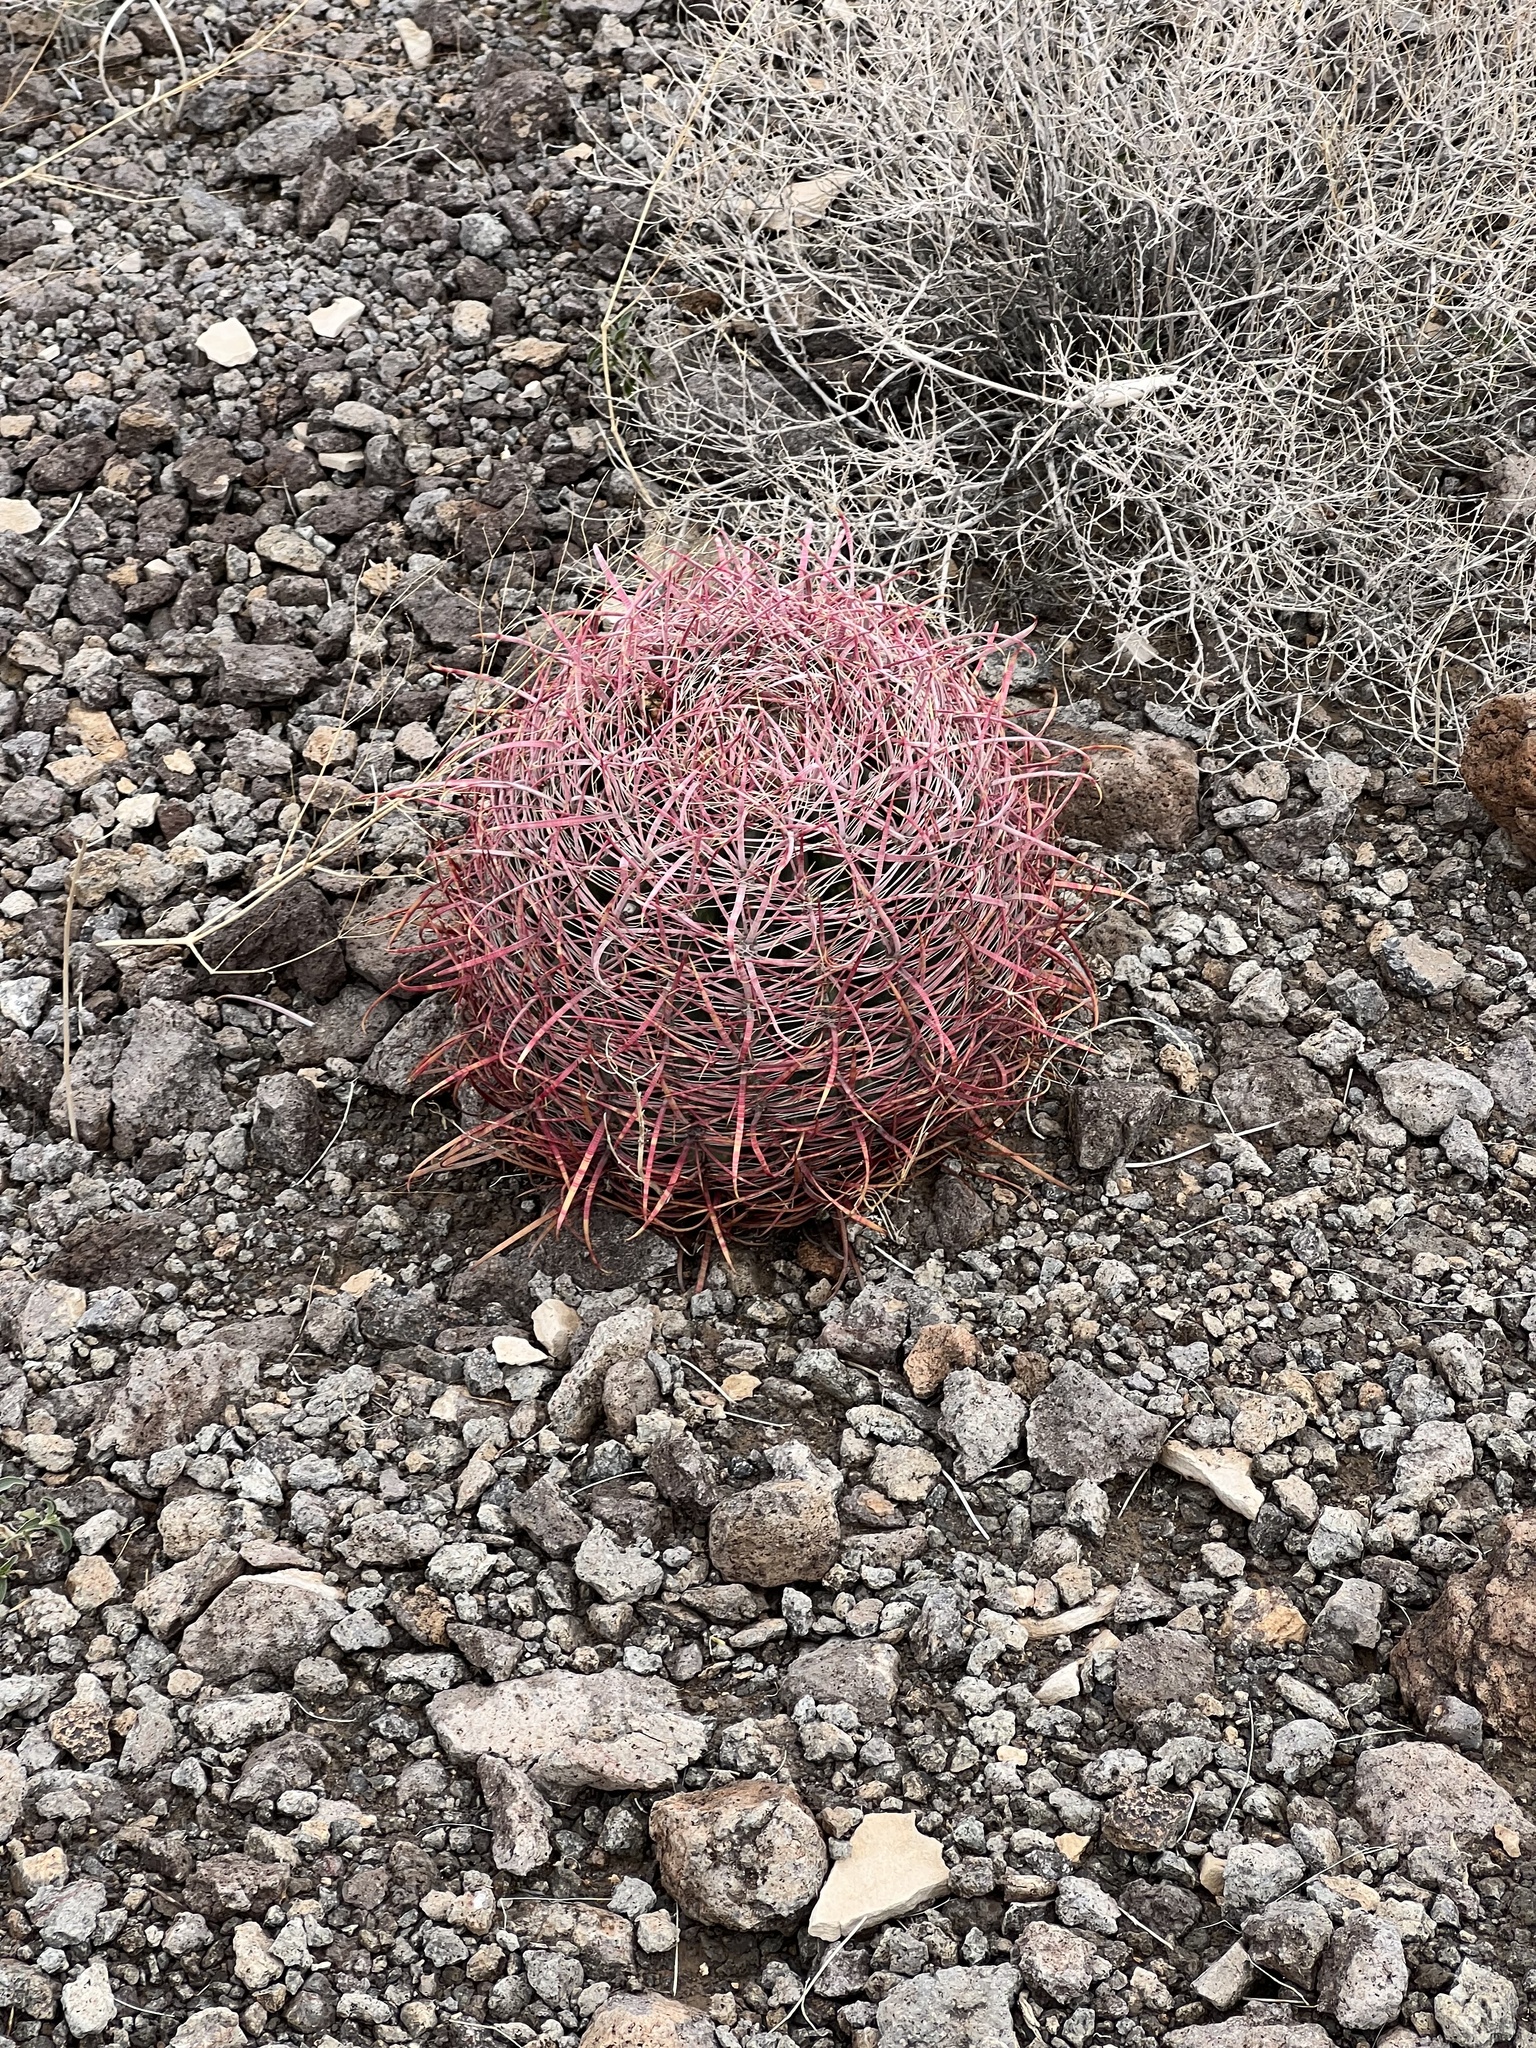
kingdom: Plantae
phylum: Tracheophyta
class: Magnoliopsida
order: Caryophyllales
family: Cactaceae
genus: Ferocactus
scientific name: Ferocactus cylindraceus
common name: California barrel cactus
